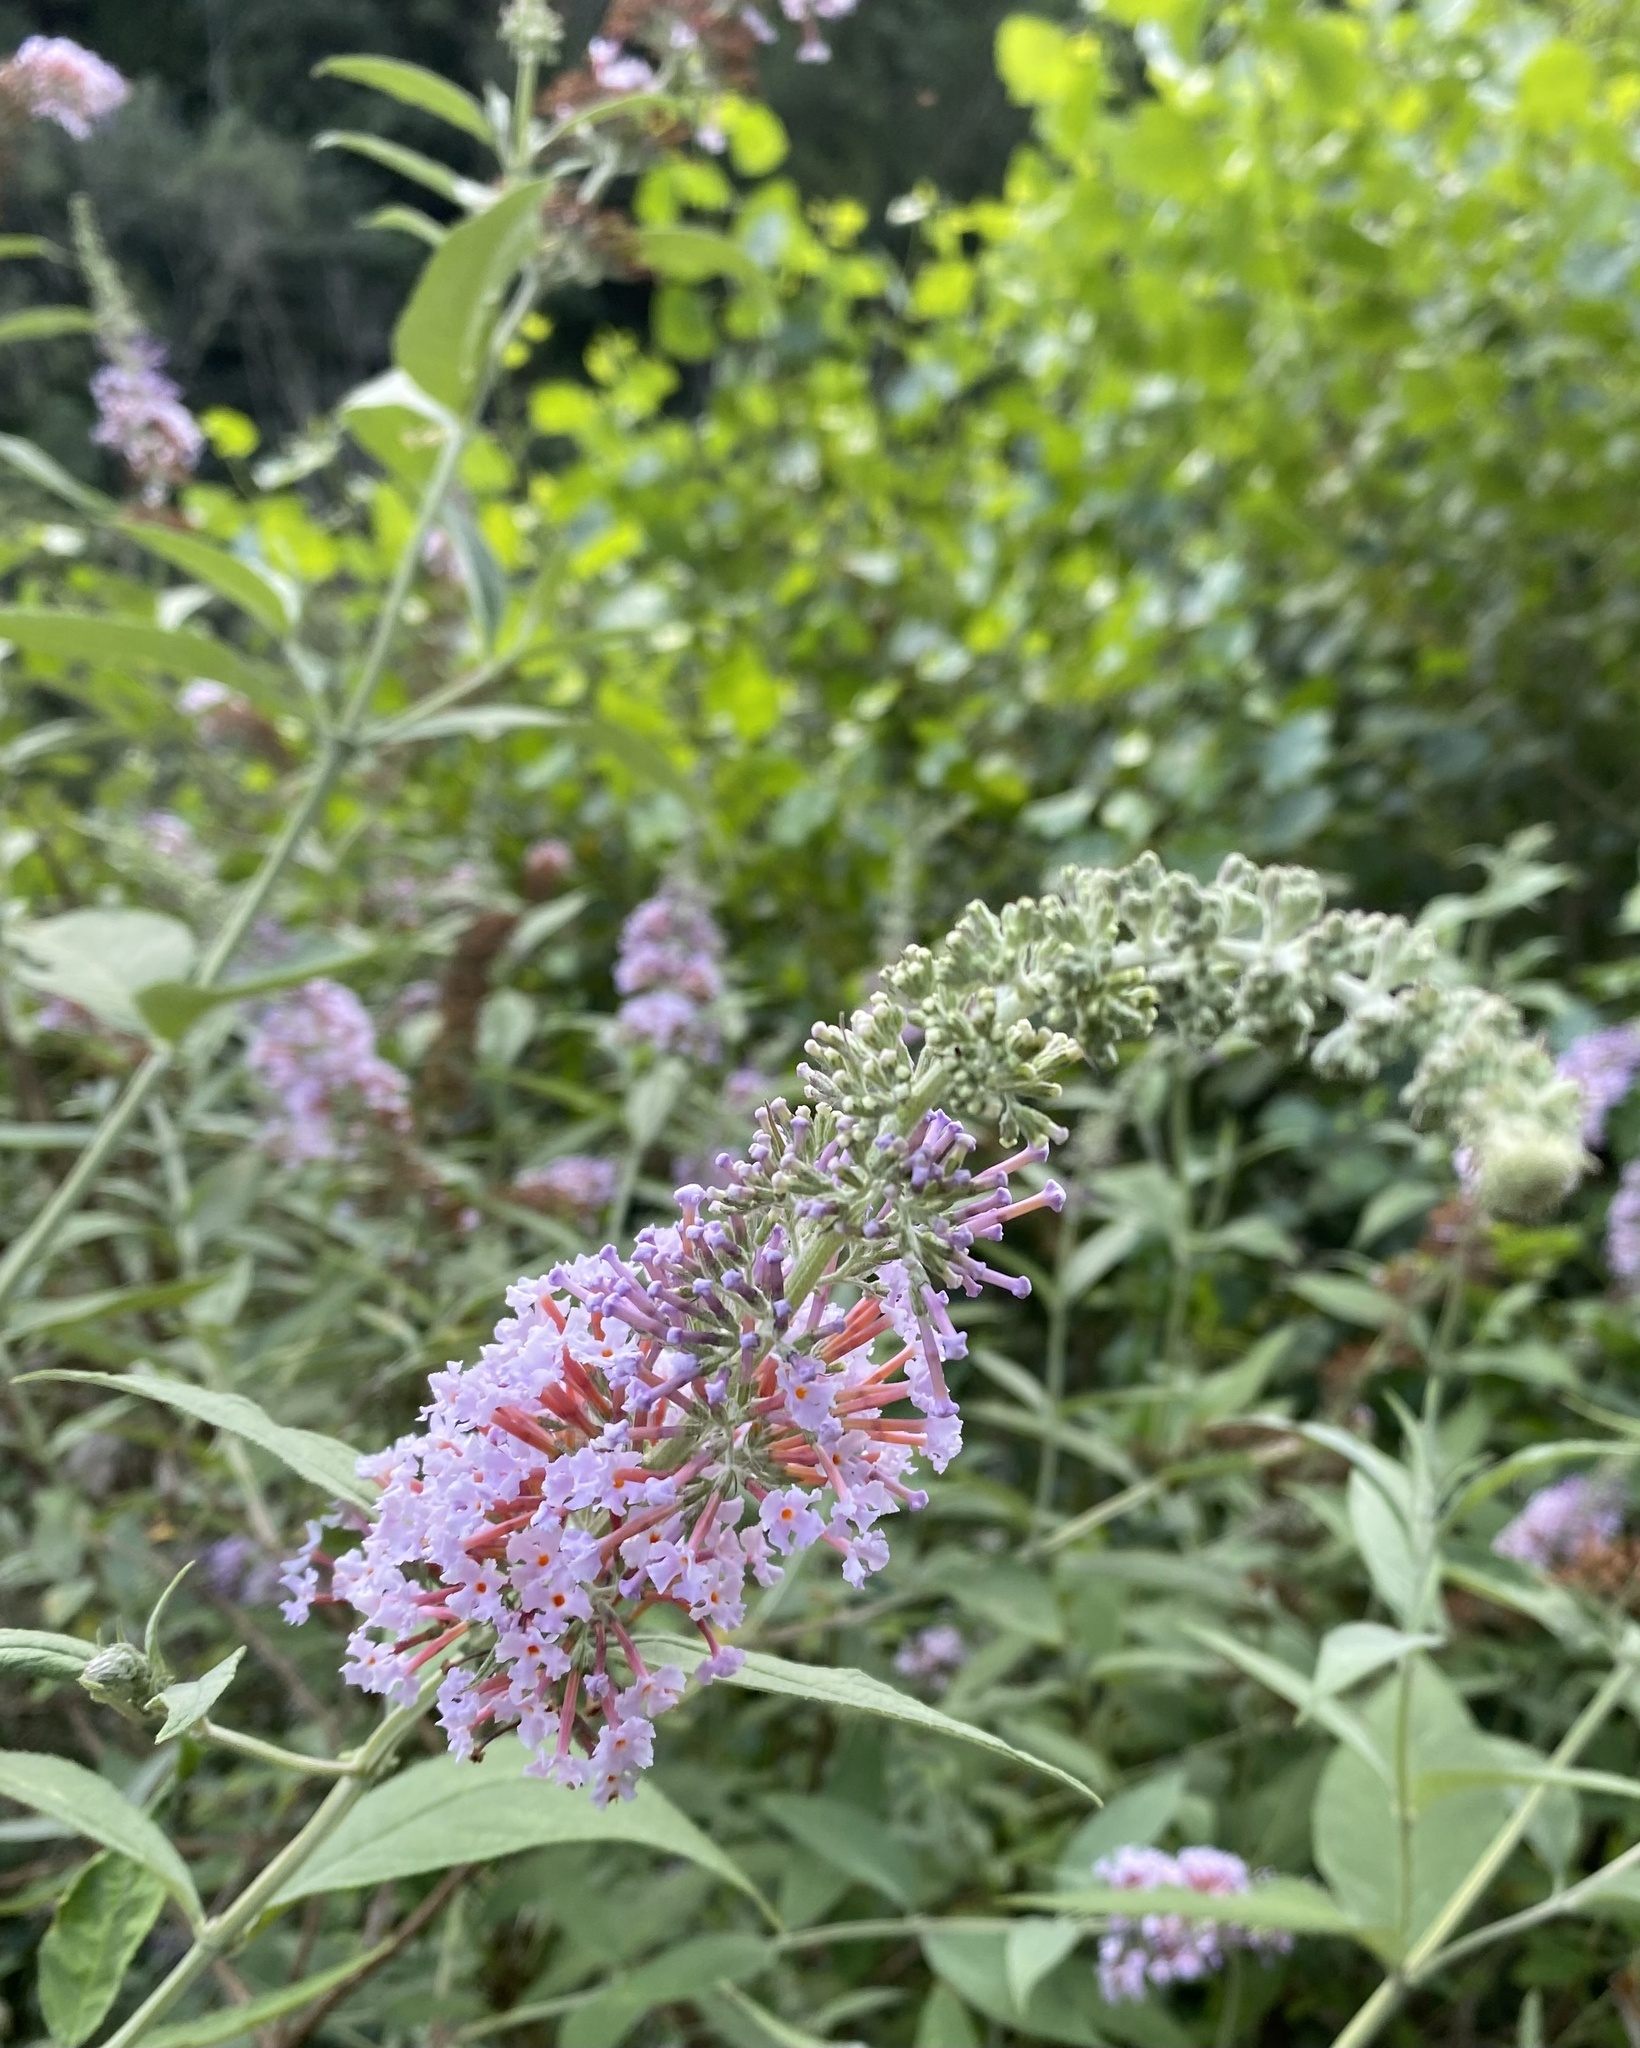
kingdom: Plantae
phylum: Tracheophyta
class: Magnoliopsida
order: Lamiales
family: Scrophulariaceae
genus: Buddleja
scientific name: Buddleja davidii
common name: Butterfly-bush
